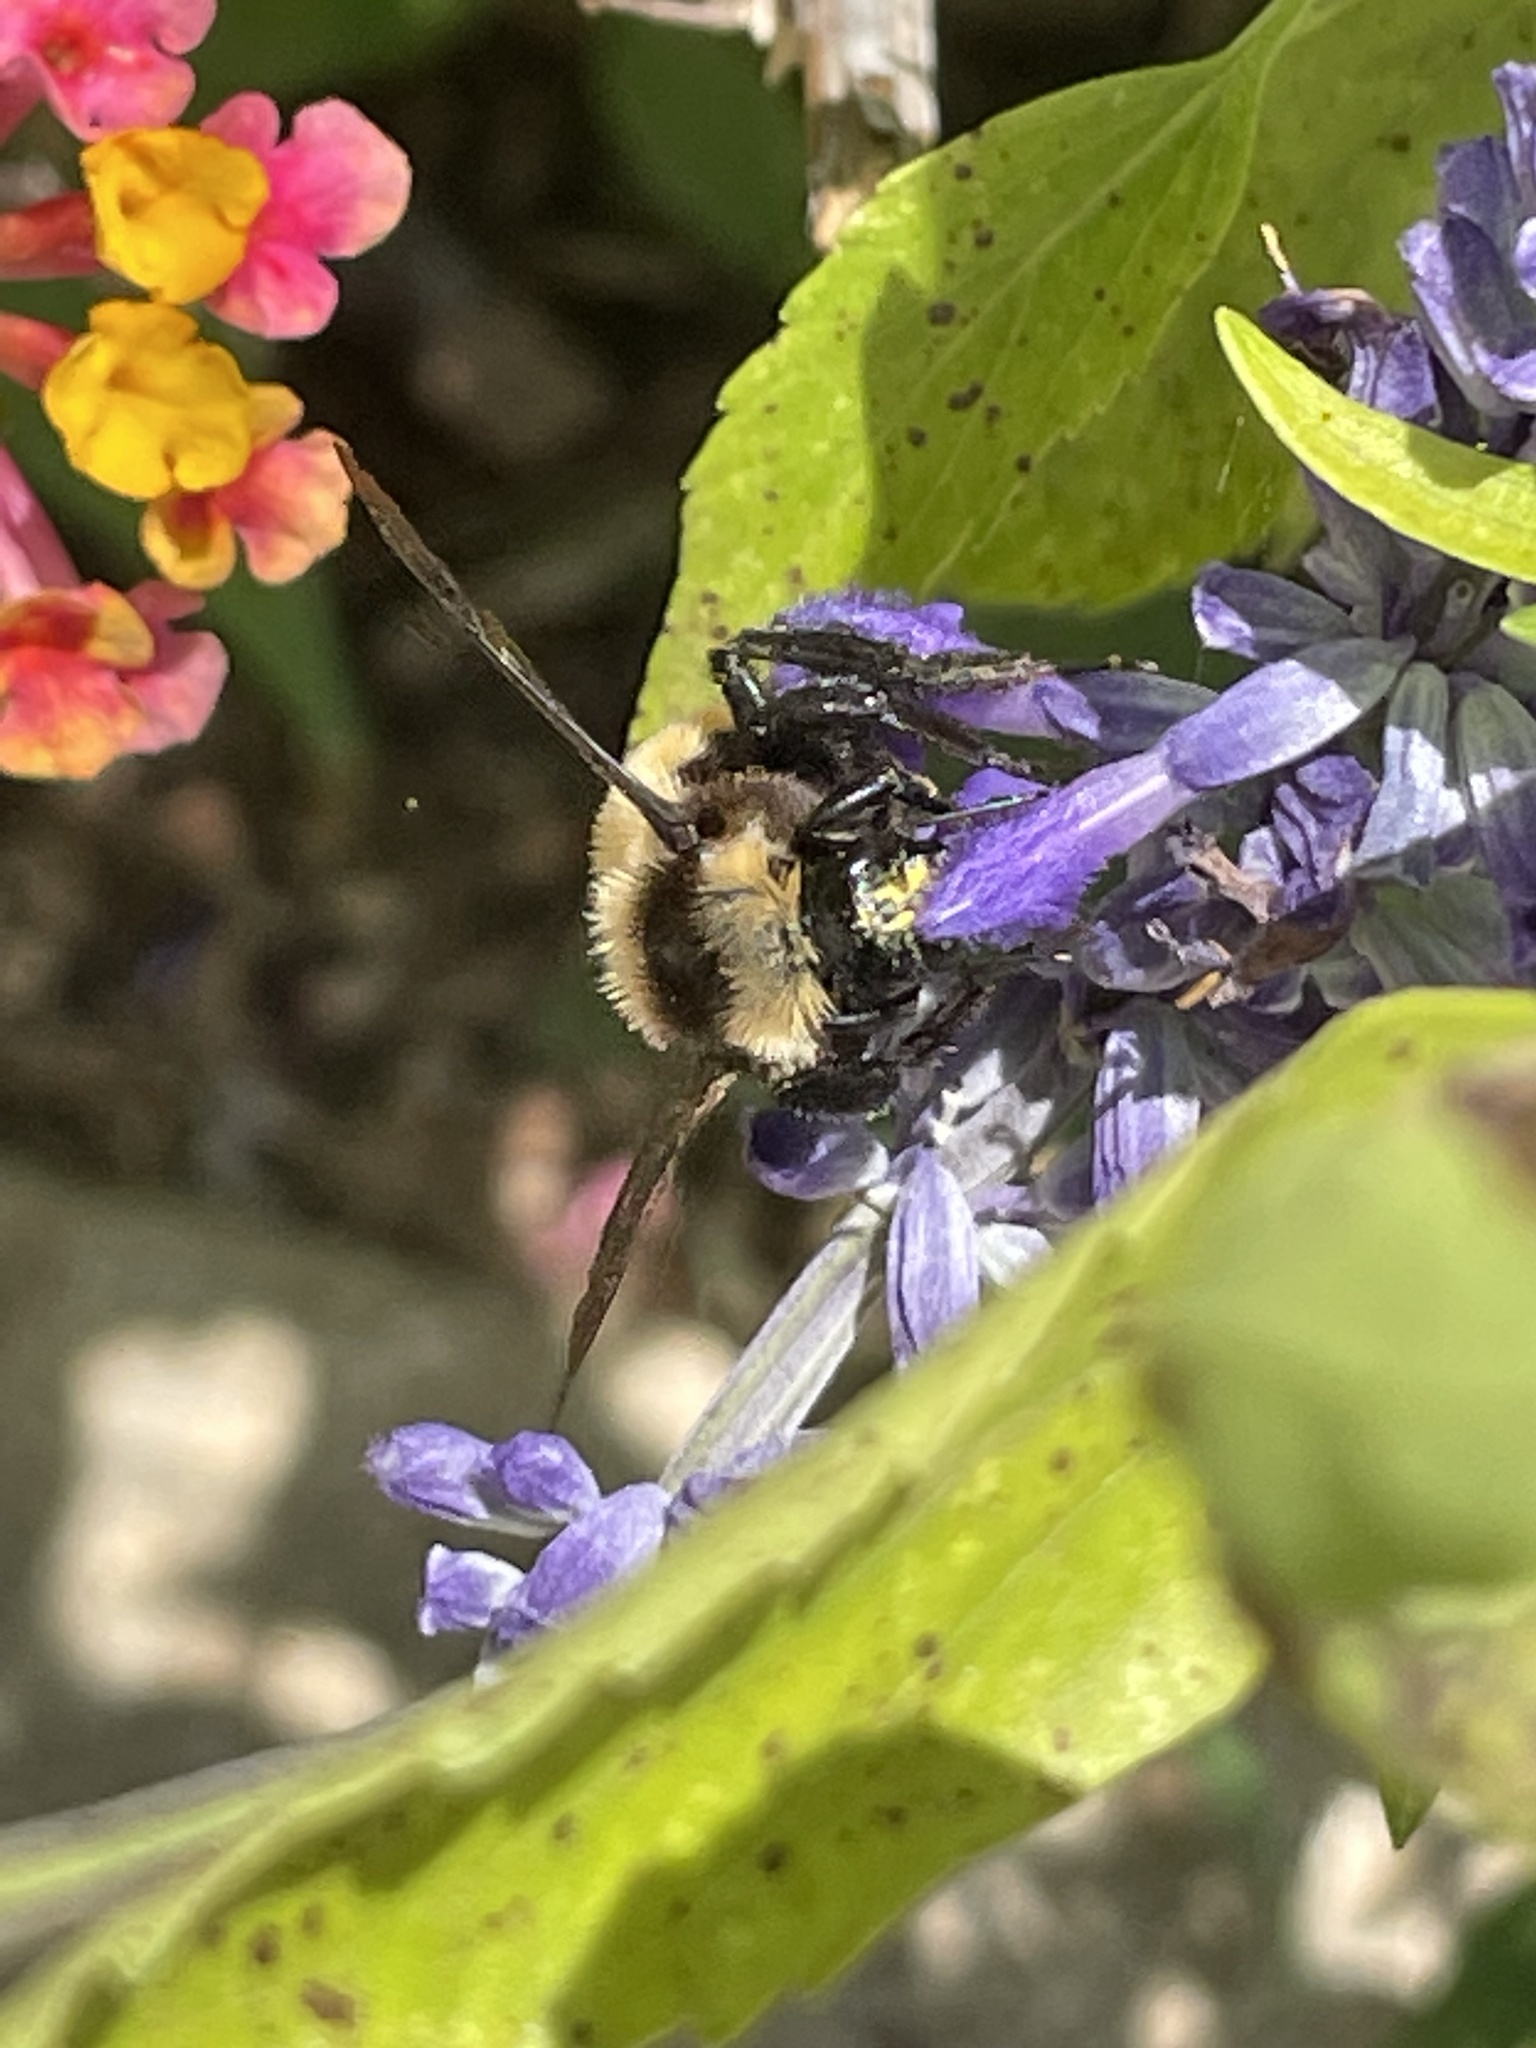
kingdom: Animalia
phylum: Arthropoda
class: Insecta
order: Hymenoptera
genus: Thoracobombus
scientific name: Thoracobombus
